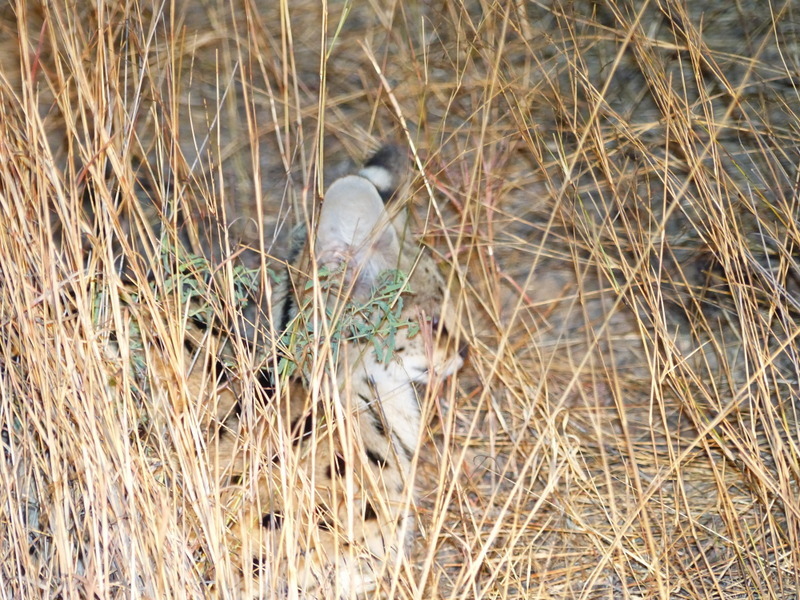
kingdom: Animalia
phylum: Chordata
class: Mammalia
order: Carnivora
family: Felidae
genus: Leptailurus
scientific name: Leptailurus serval
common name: Serval
